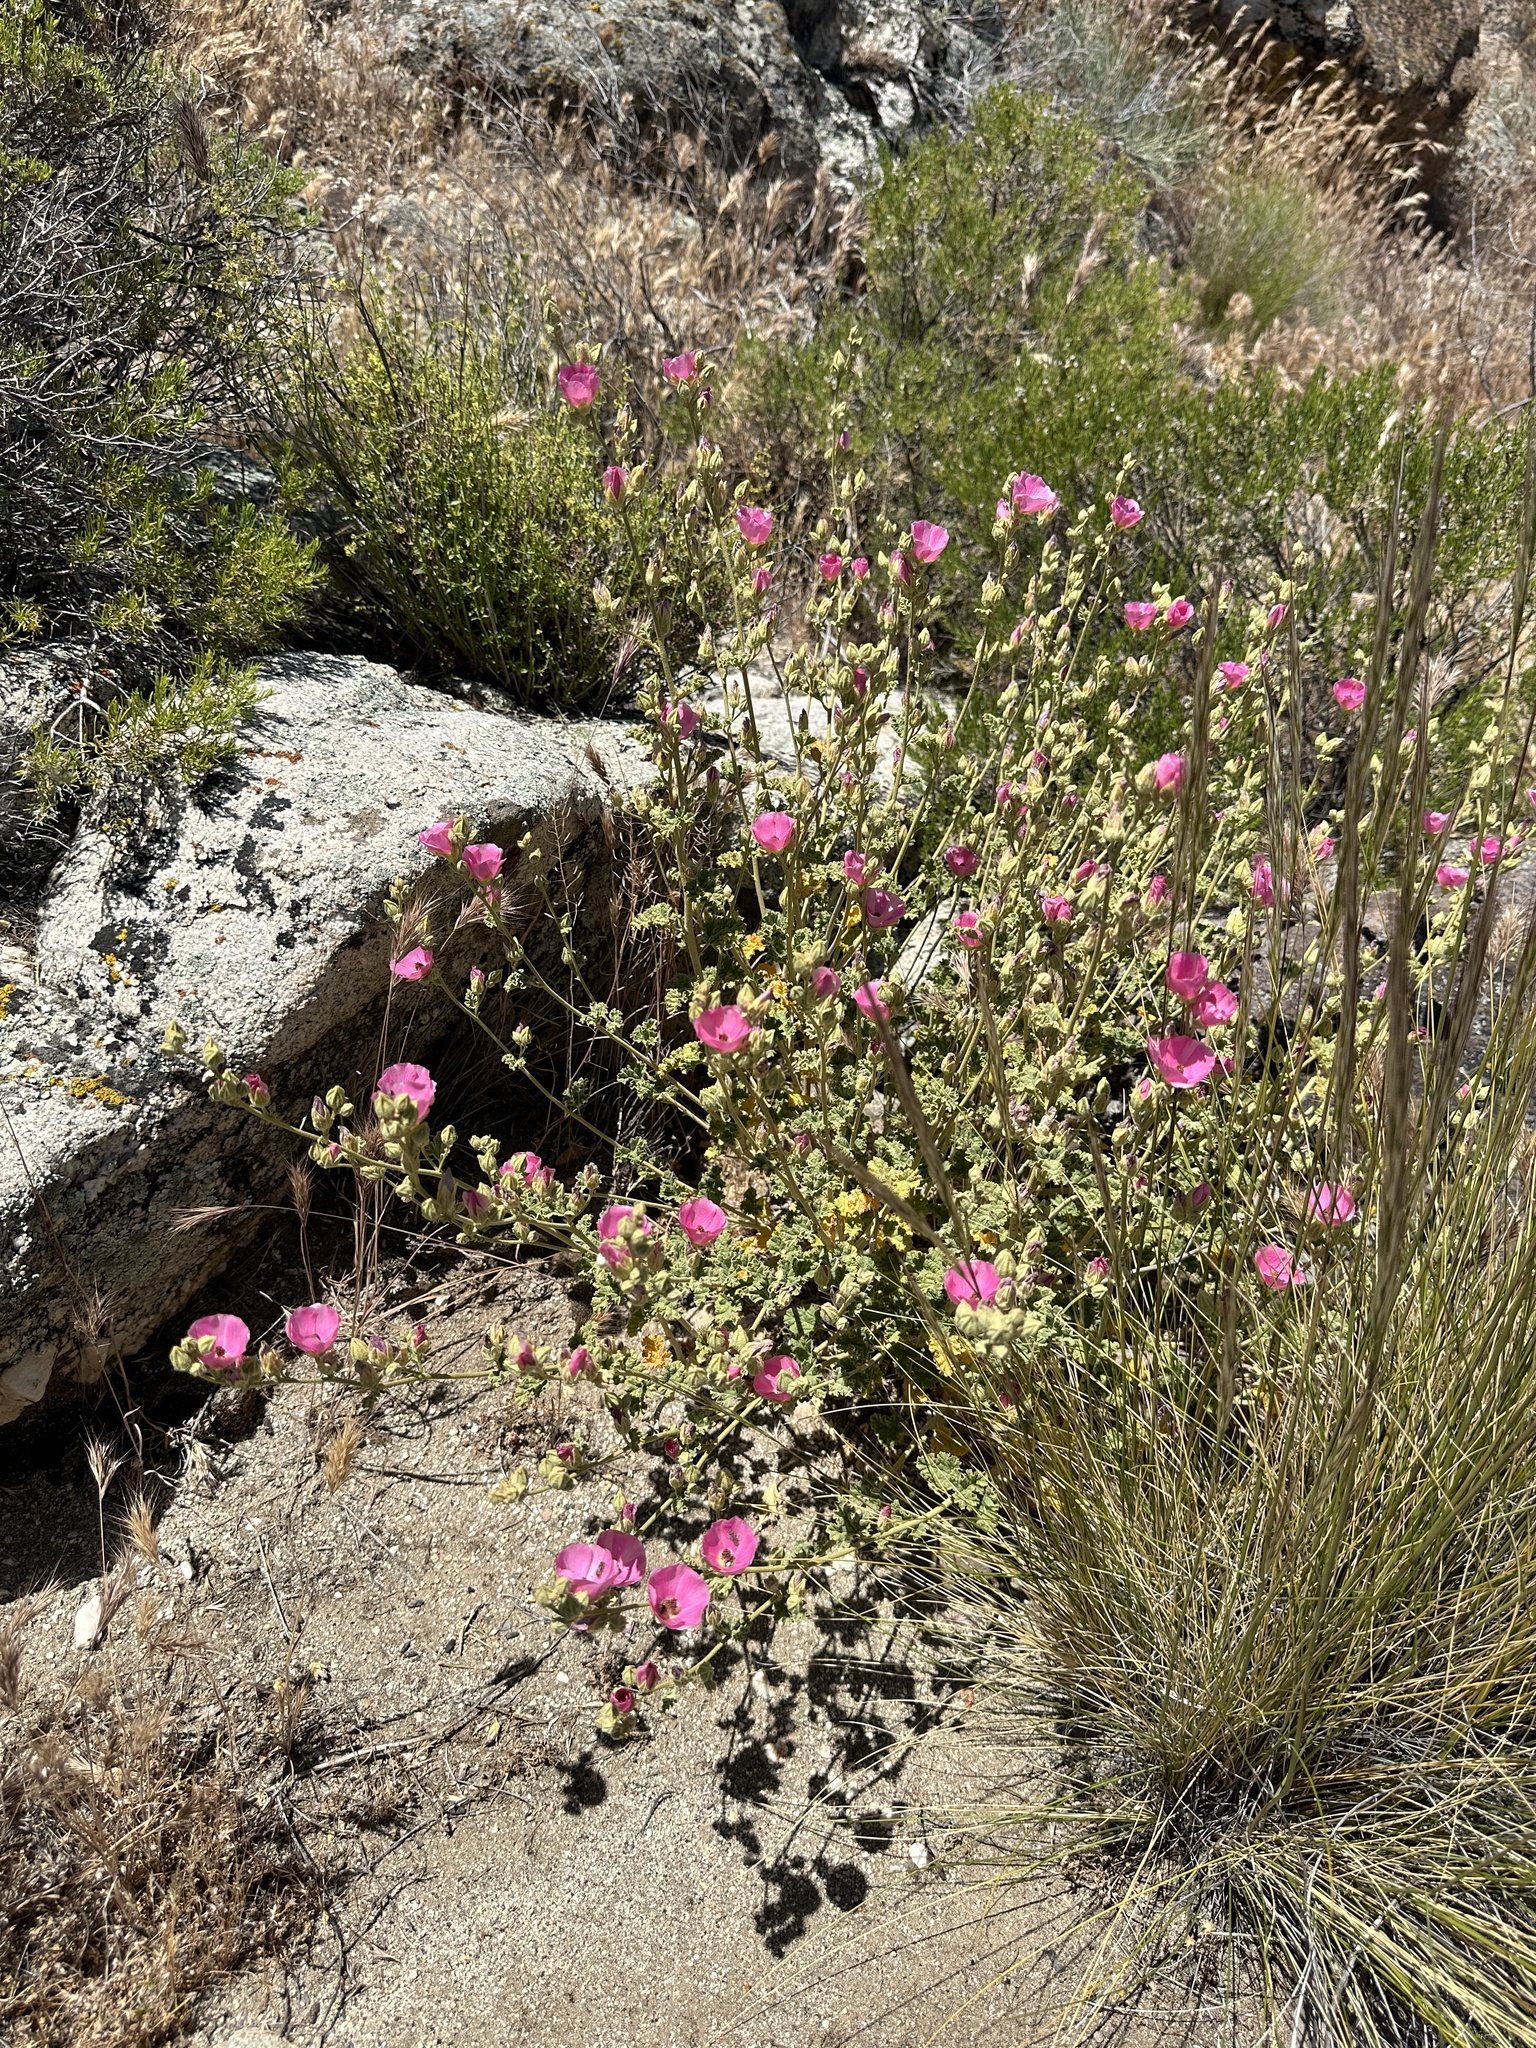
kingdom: Plantae
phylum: Tracheophyta
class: Magnoliopsida
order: Malvales
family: Malvaceae
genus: Sphaeralcea
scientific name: Sphaeralcea ambigua
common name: Apricot globe-mallow
